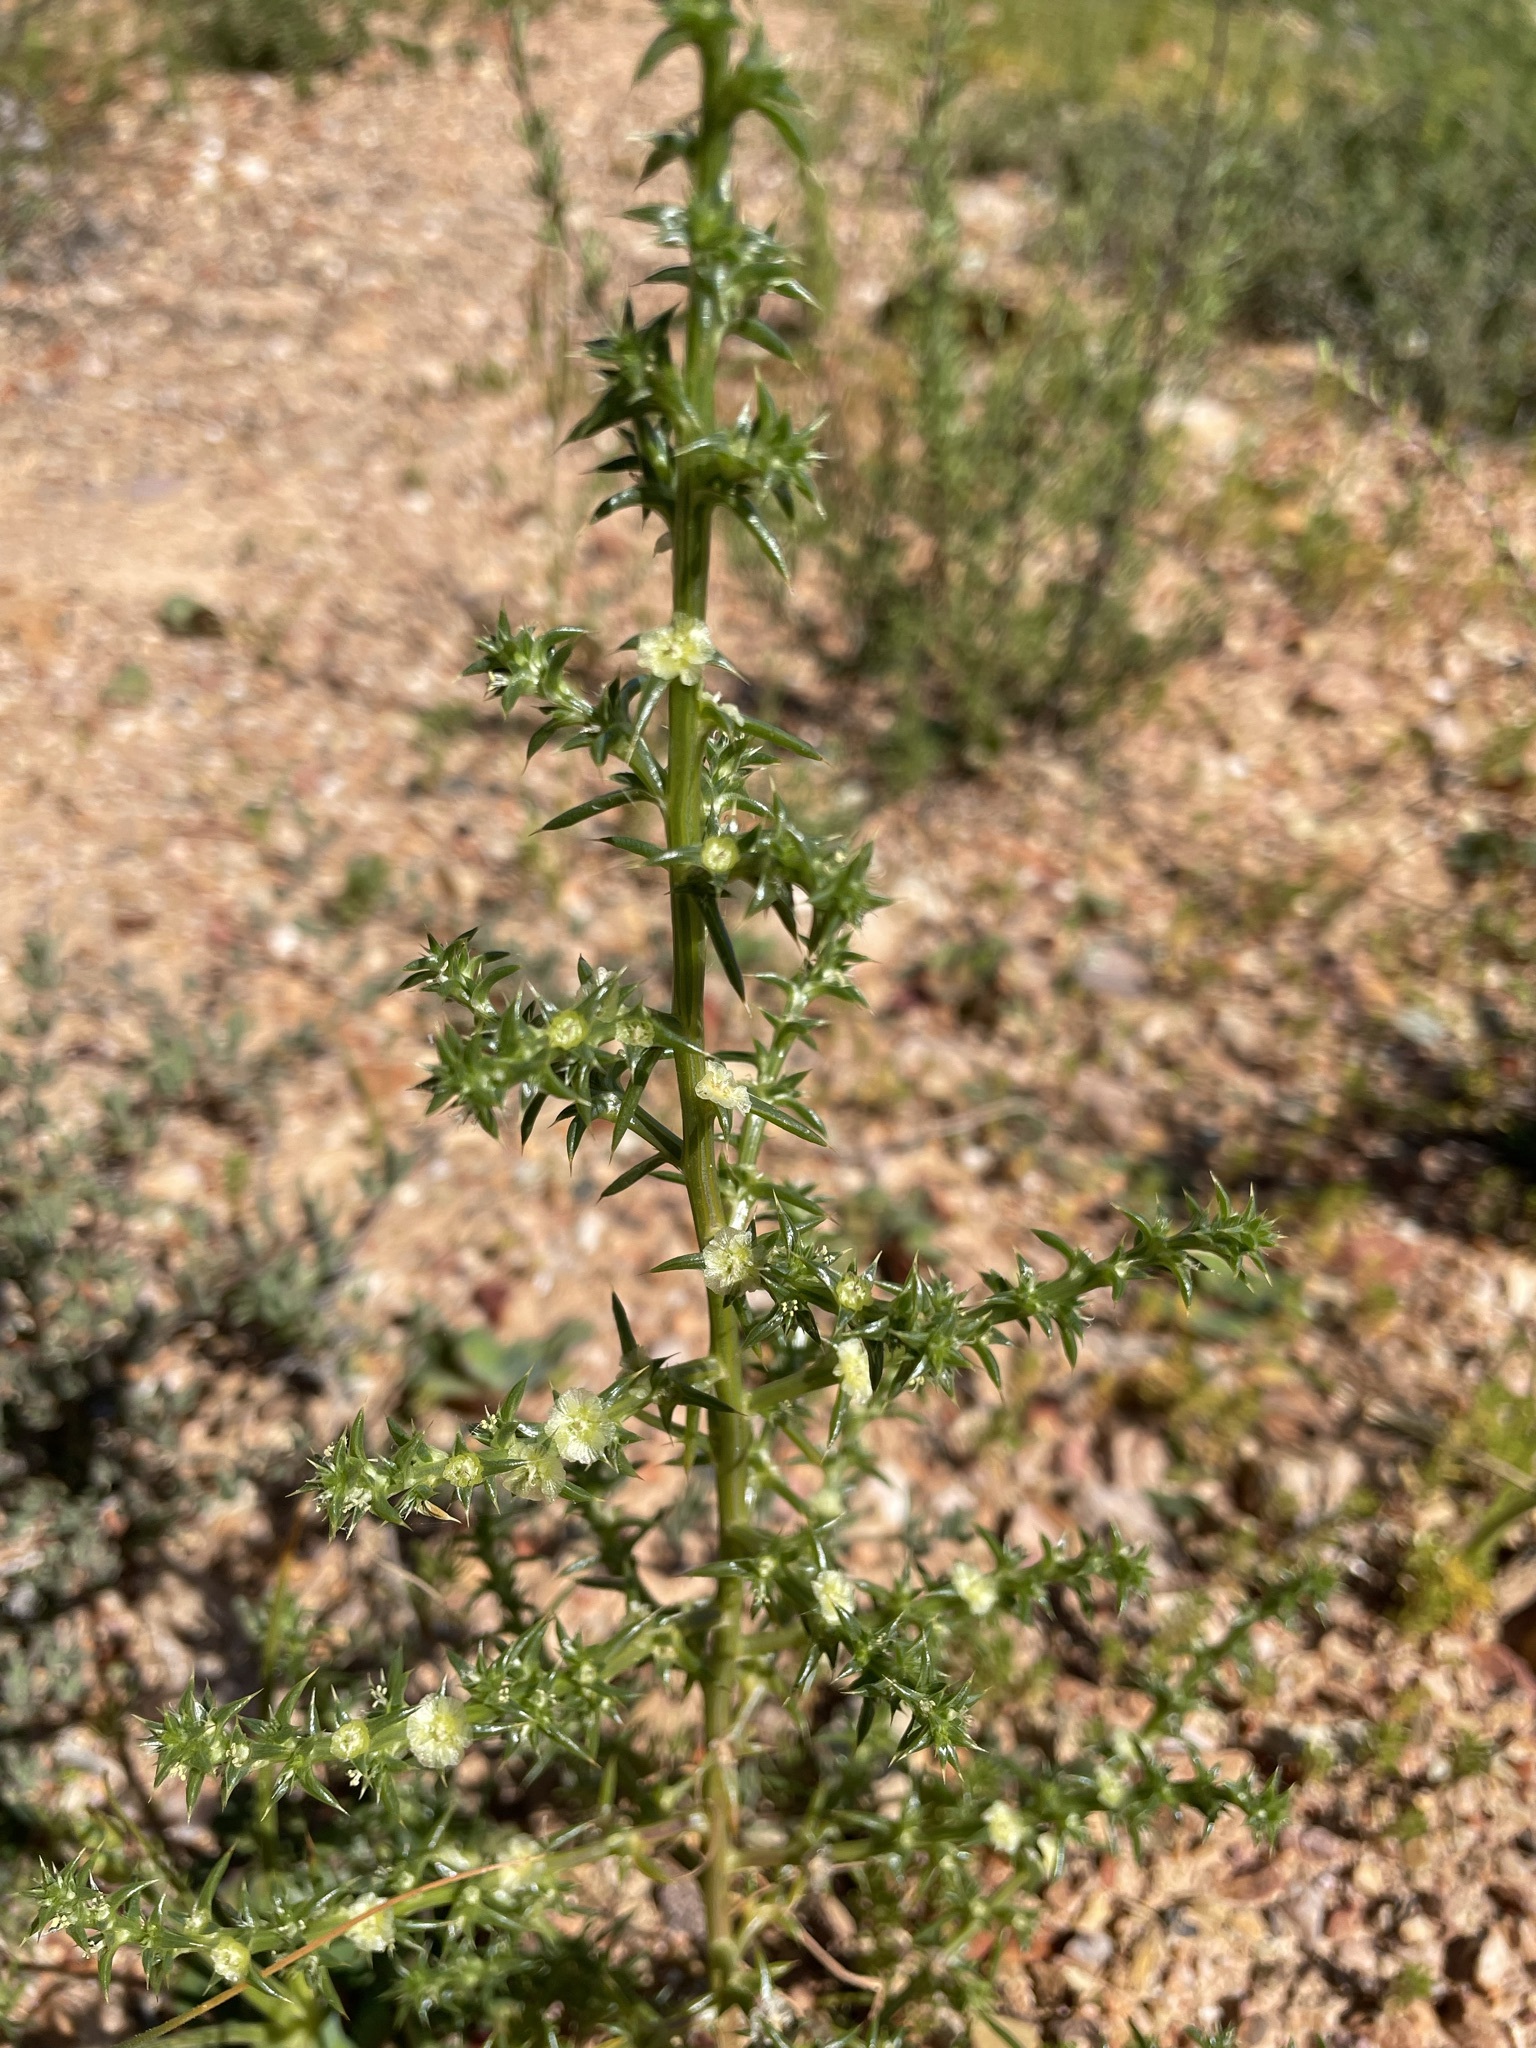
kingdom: Plantae
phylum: Tracheophyta
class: Magnoliopsida
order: Caryophyllales
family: Amaranthaceae
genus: Salsola
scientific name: Salsola kali
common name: Saltwort
